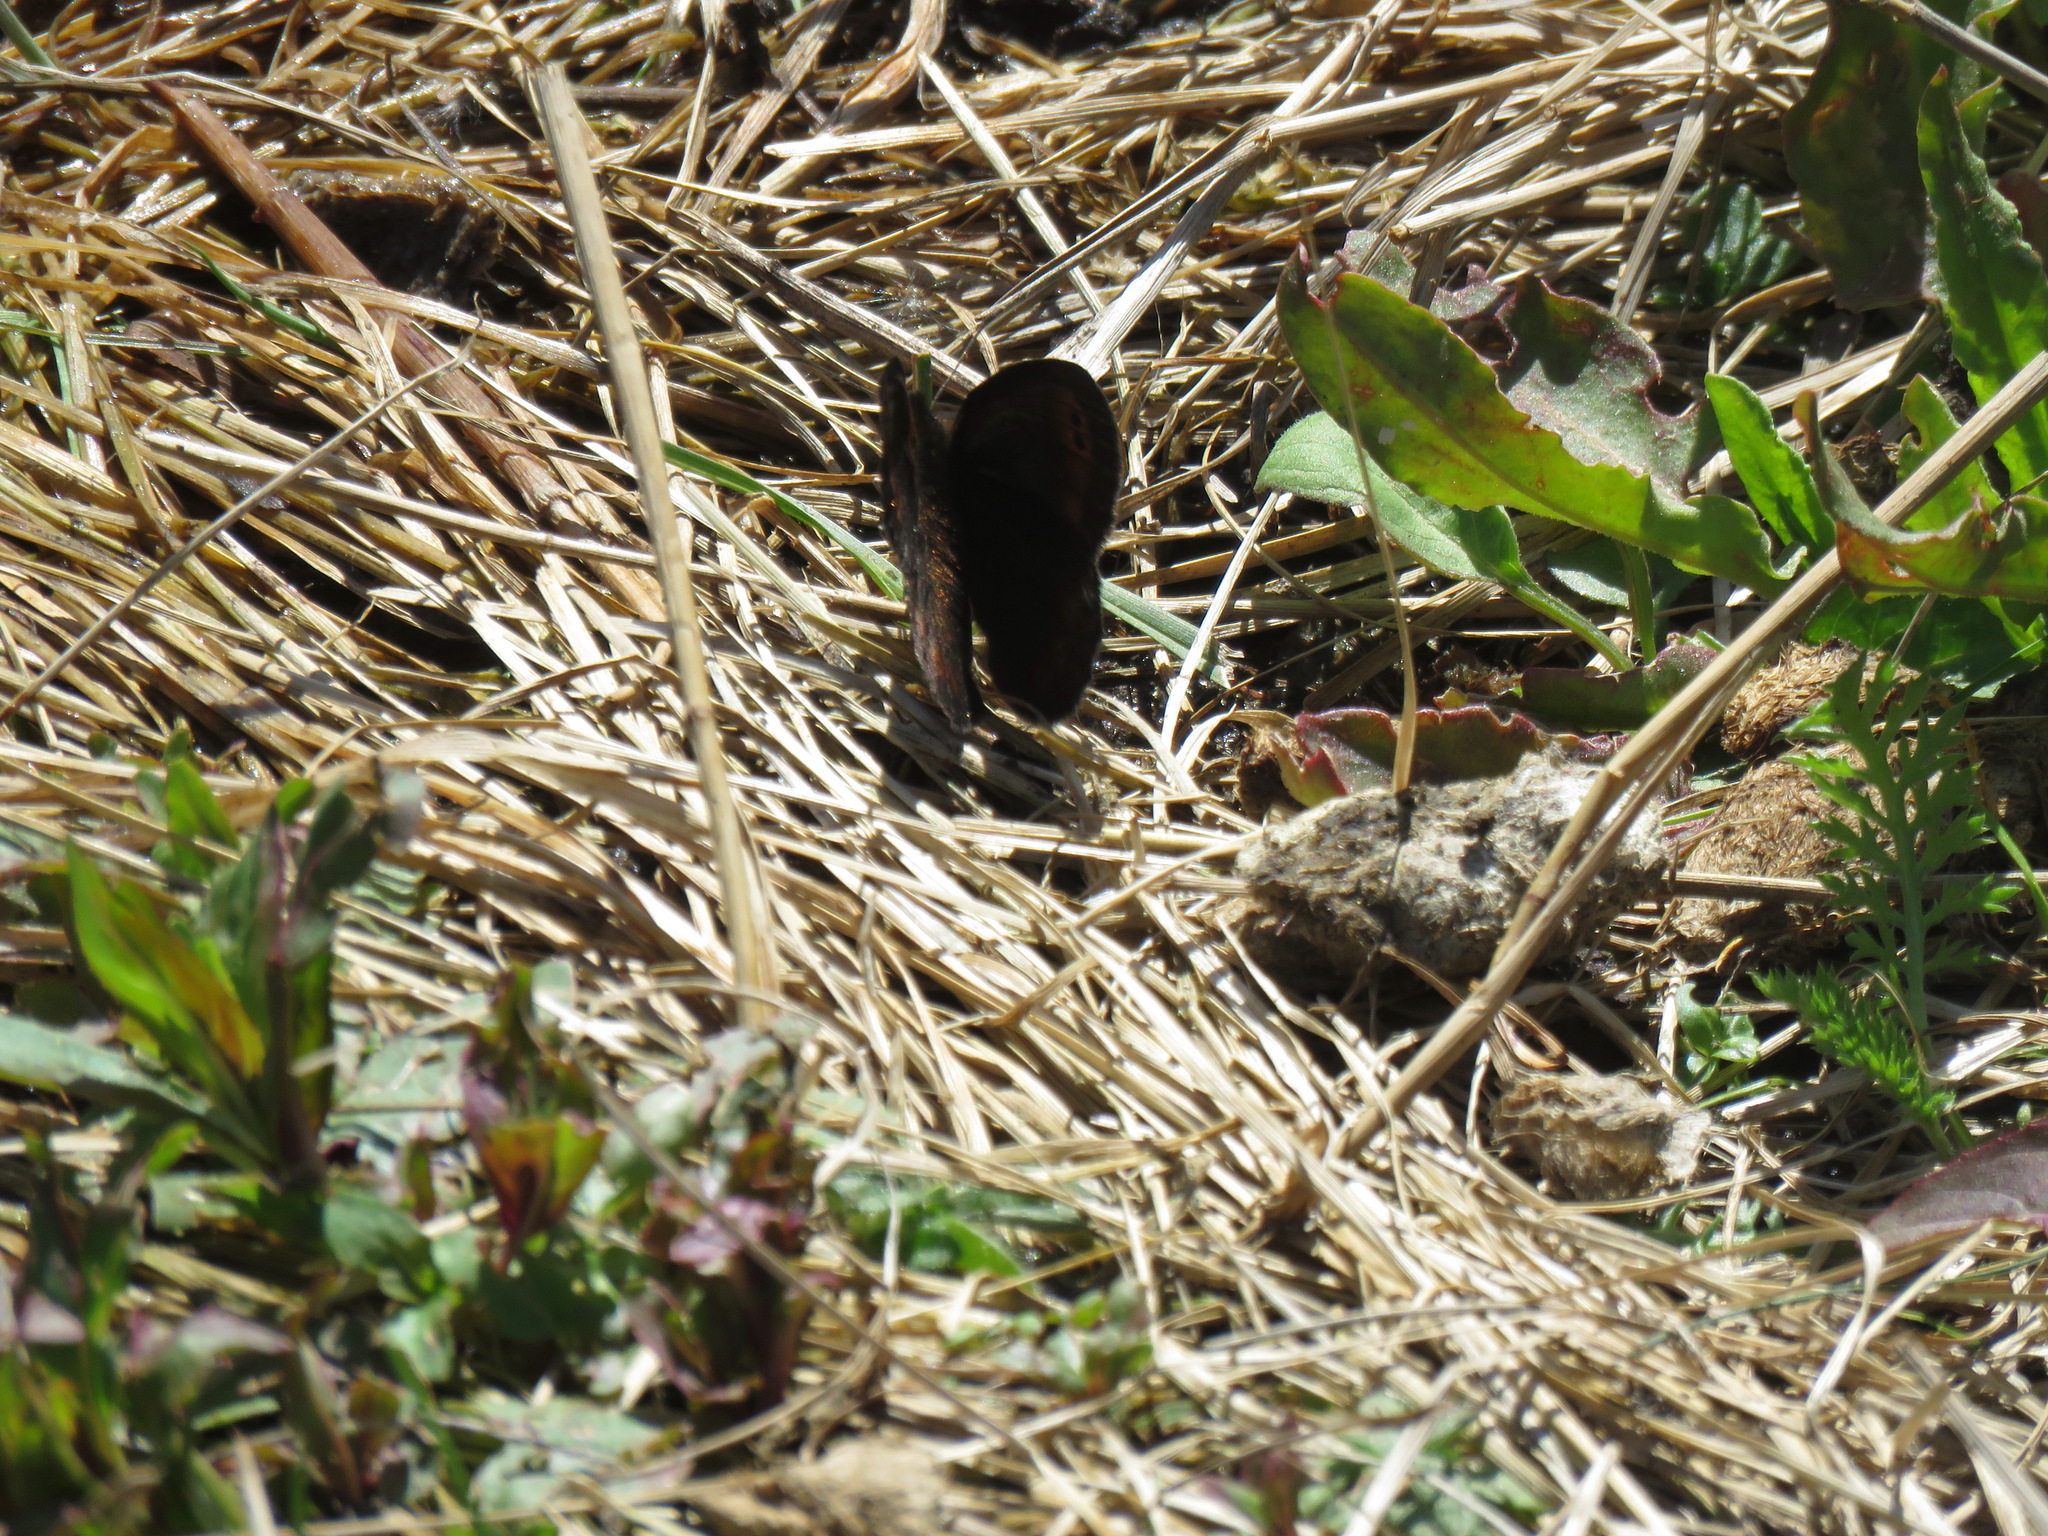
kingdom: Animalia
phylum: Arthropoda
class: Insecta
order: Lepidoptera
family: Nymphalidae
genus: Erebia
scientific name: Erebia epipsodea
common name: Common alpine
